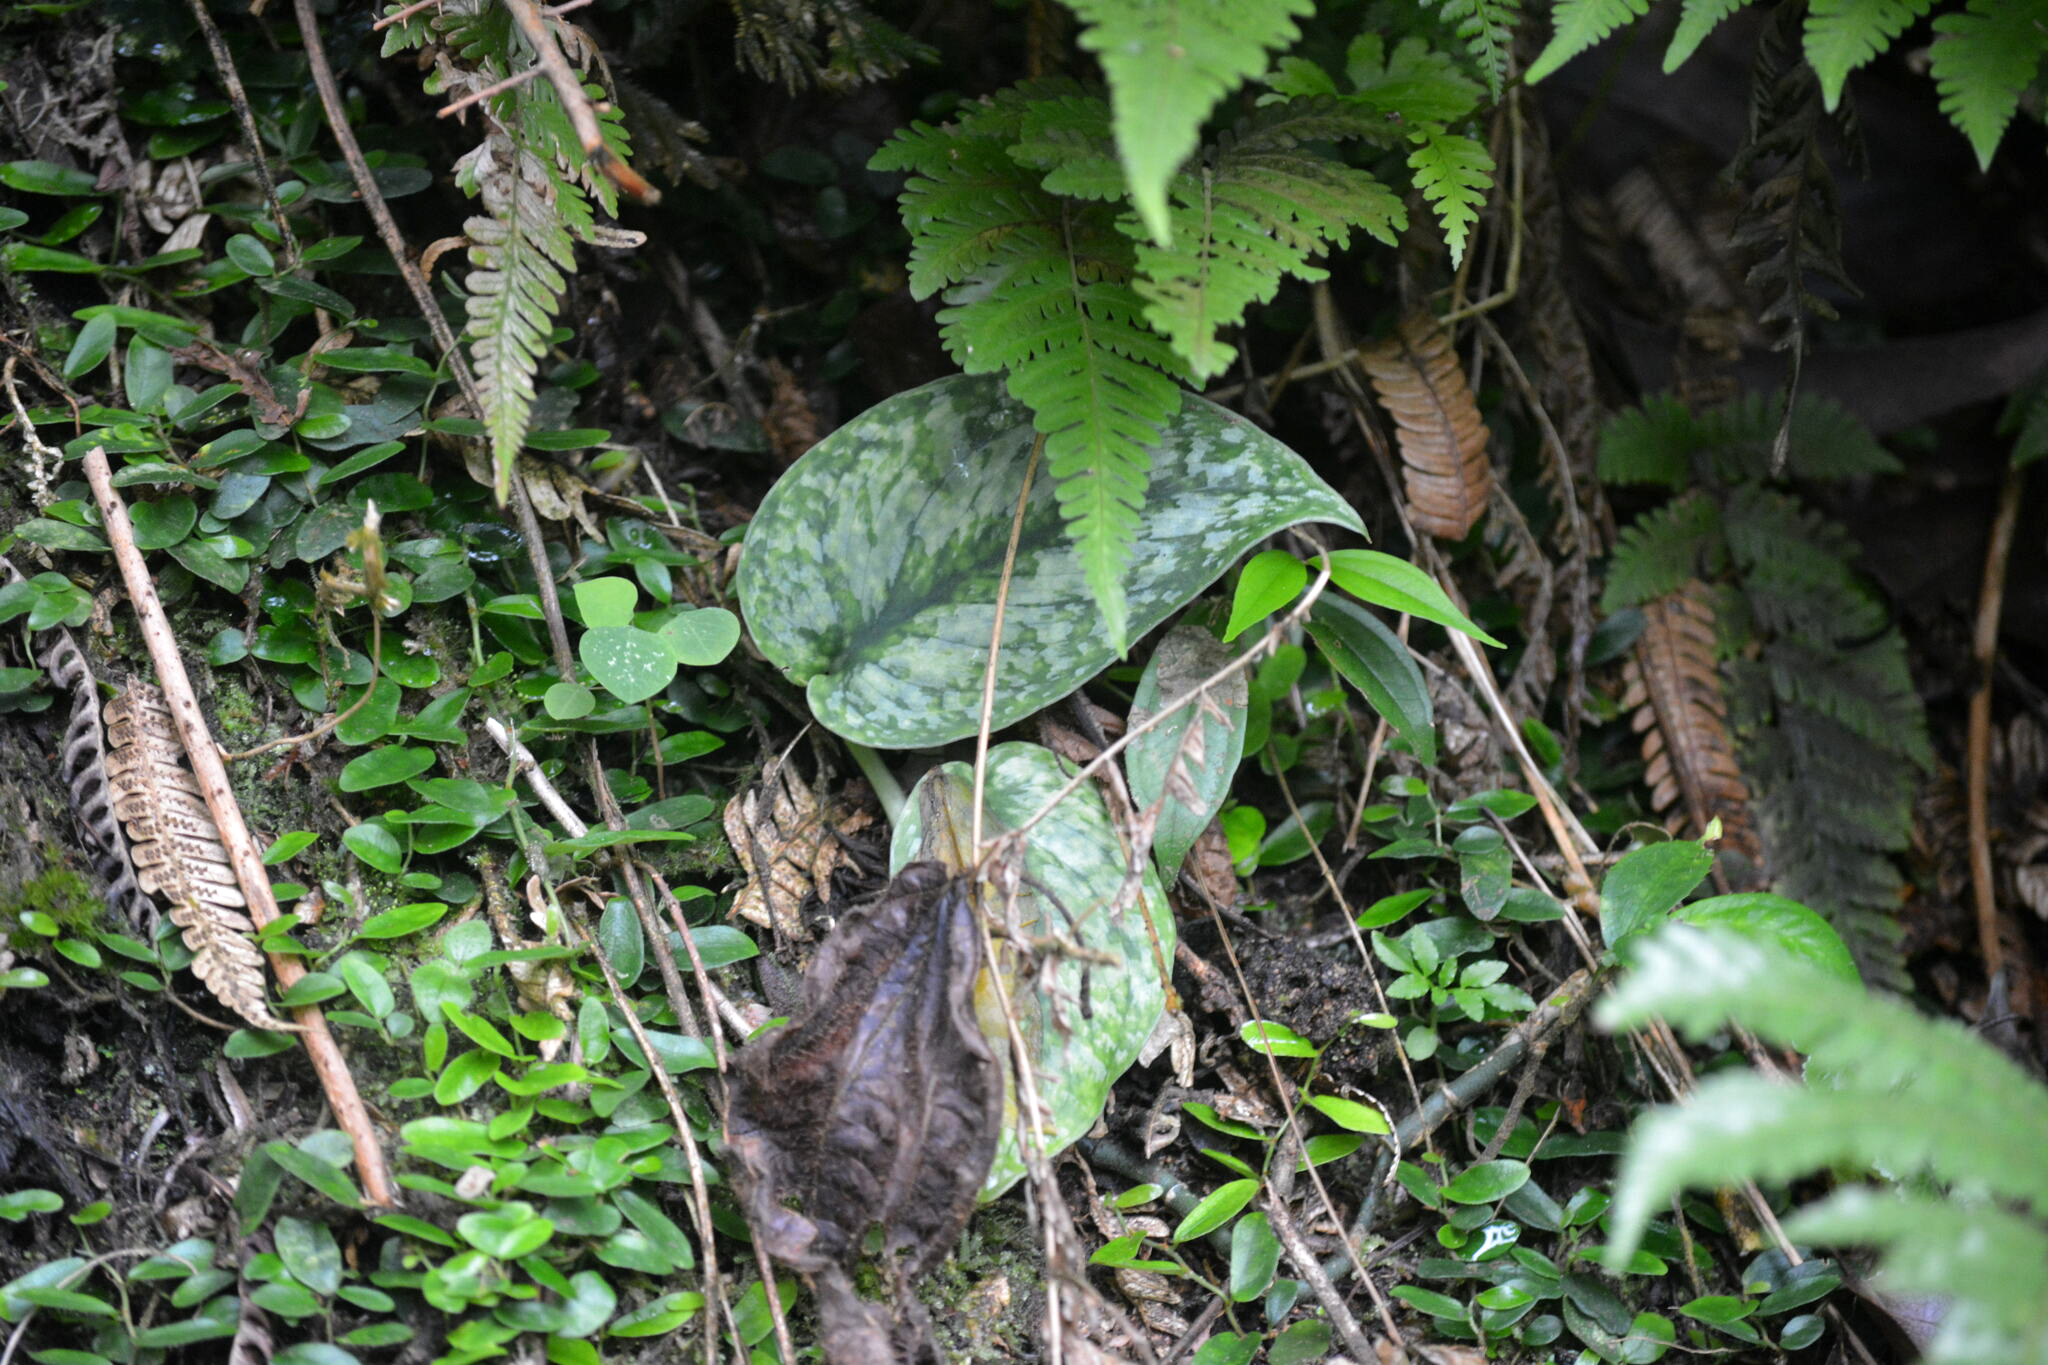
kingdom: Plantae
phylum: Tracheophyta
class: Liliopsida
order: Alismatales
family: Araceae
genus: Scindapsus
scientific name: Scindapsus pictus
